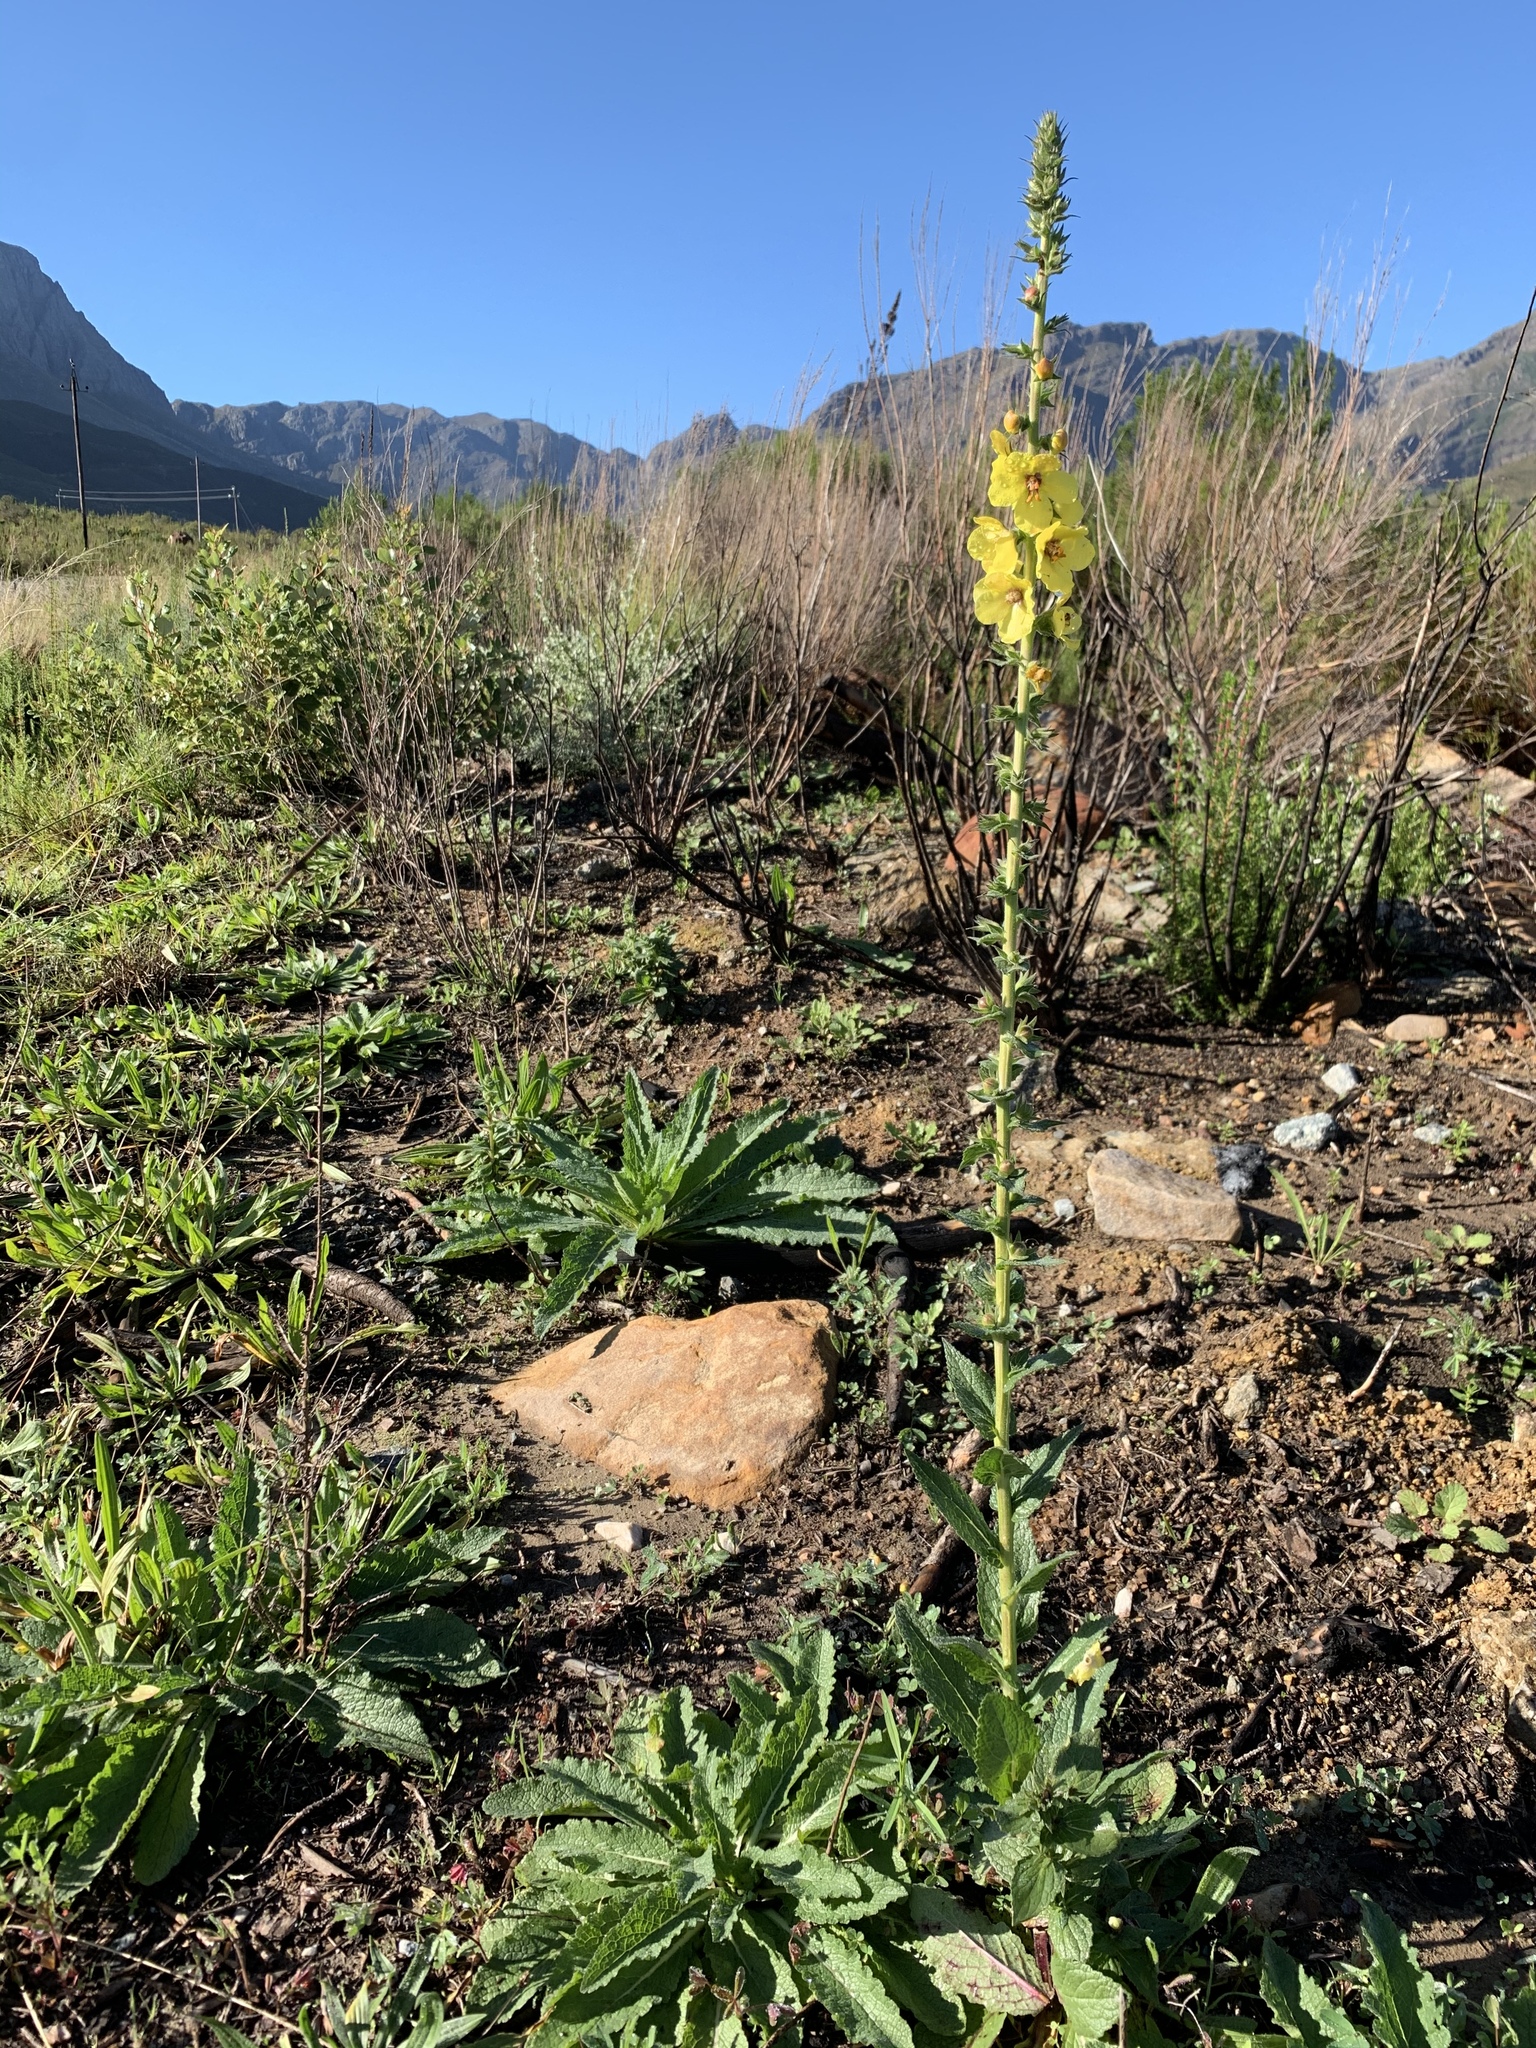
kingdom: Plantae
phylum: Tracheophyta
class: Magnoliopsida
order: Lamiales
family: Scrophulariaceae
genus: Verbascum
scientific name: Verbascum virgatum
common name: Twiggy mullein
